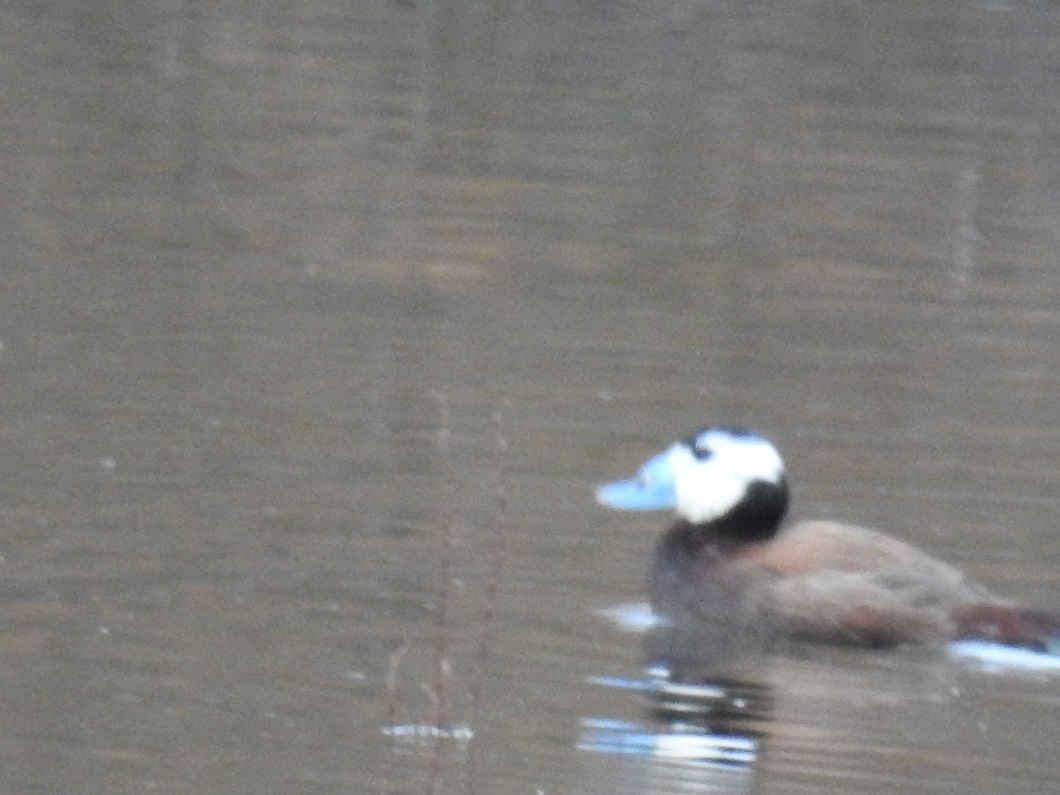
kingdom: Animalia
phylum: Chordata
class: Aves
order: Anseriformes
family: Anatidae
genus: Oxyura
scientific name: Oxyura leucocephala
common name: White-headed duck
